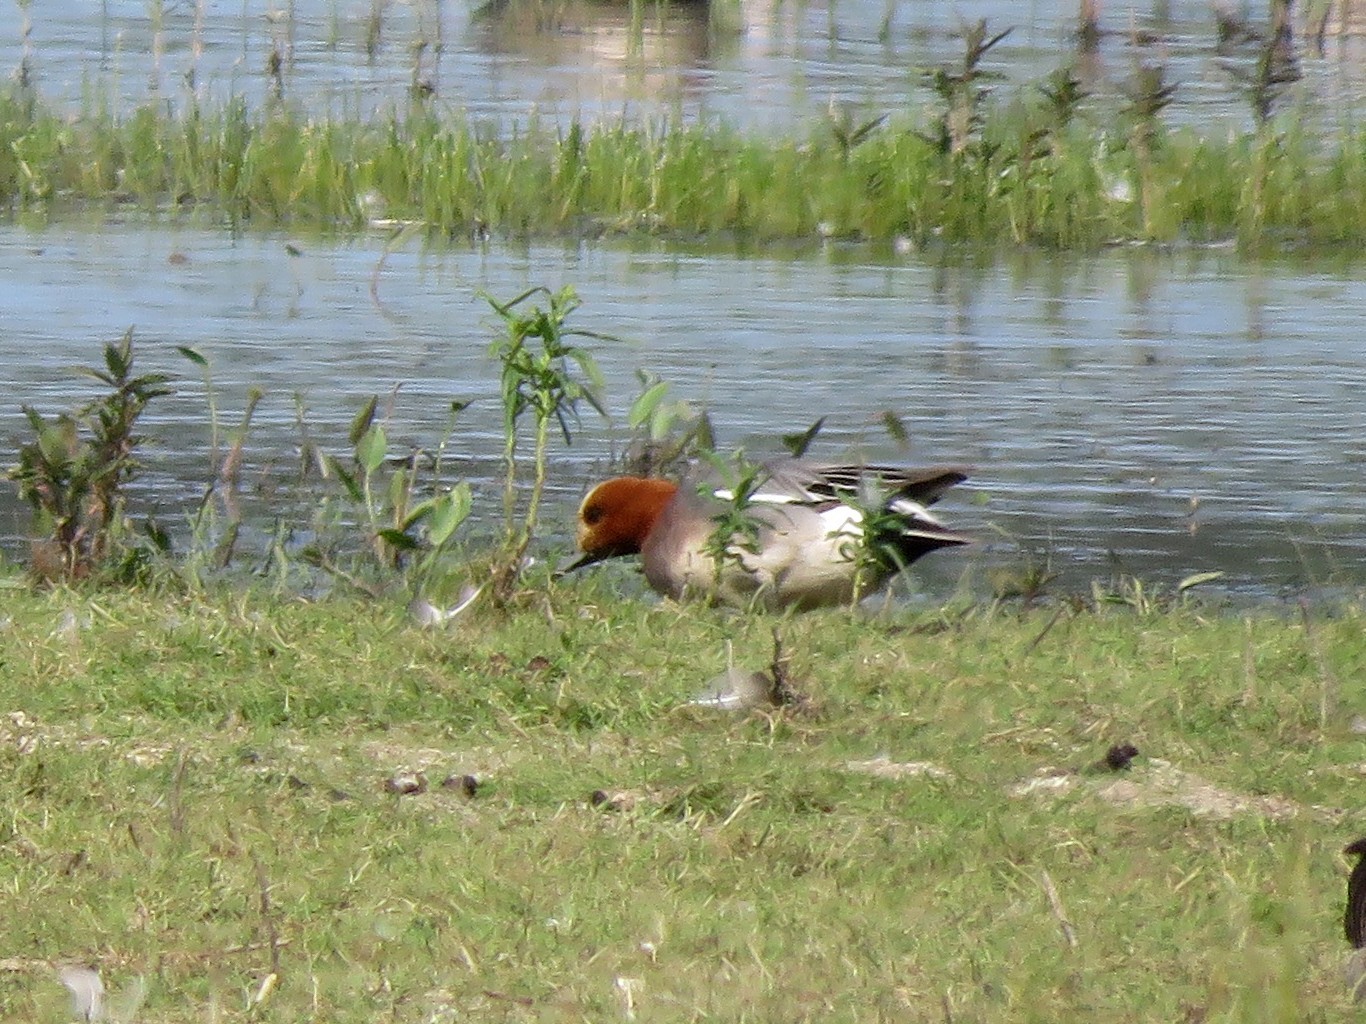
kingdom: Animalia
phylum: Chordata
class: Aves
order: Anseriformes
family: Anatidae
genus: Mareca
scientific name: Mareca penelope
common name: Eurasian wigeon
